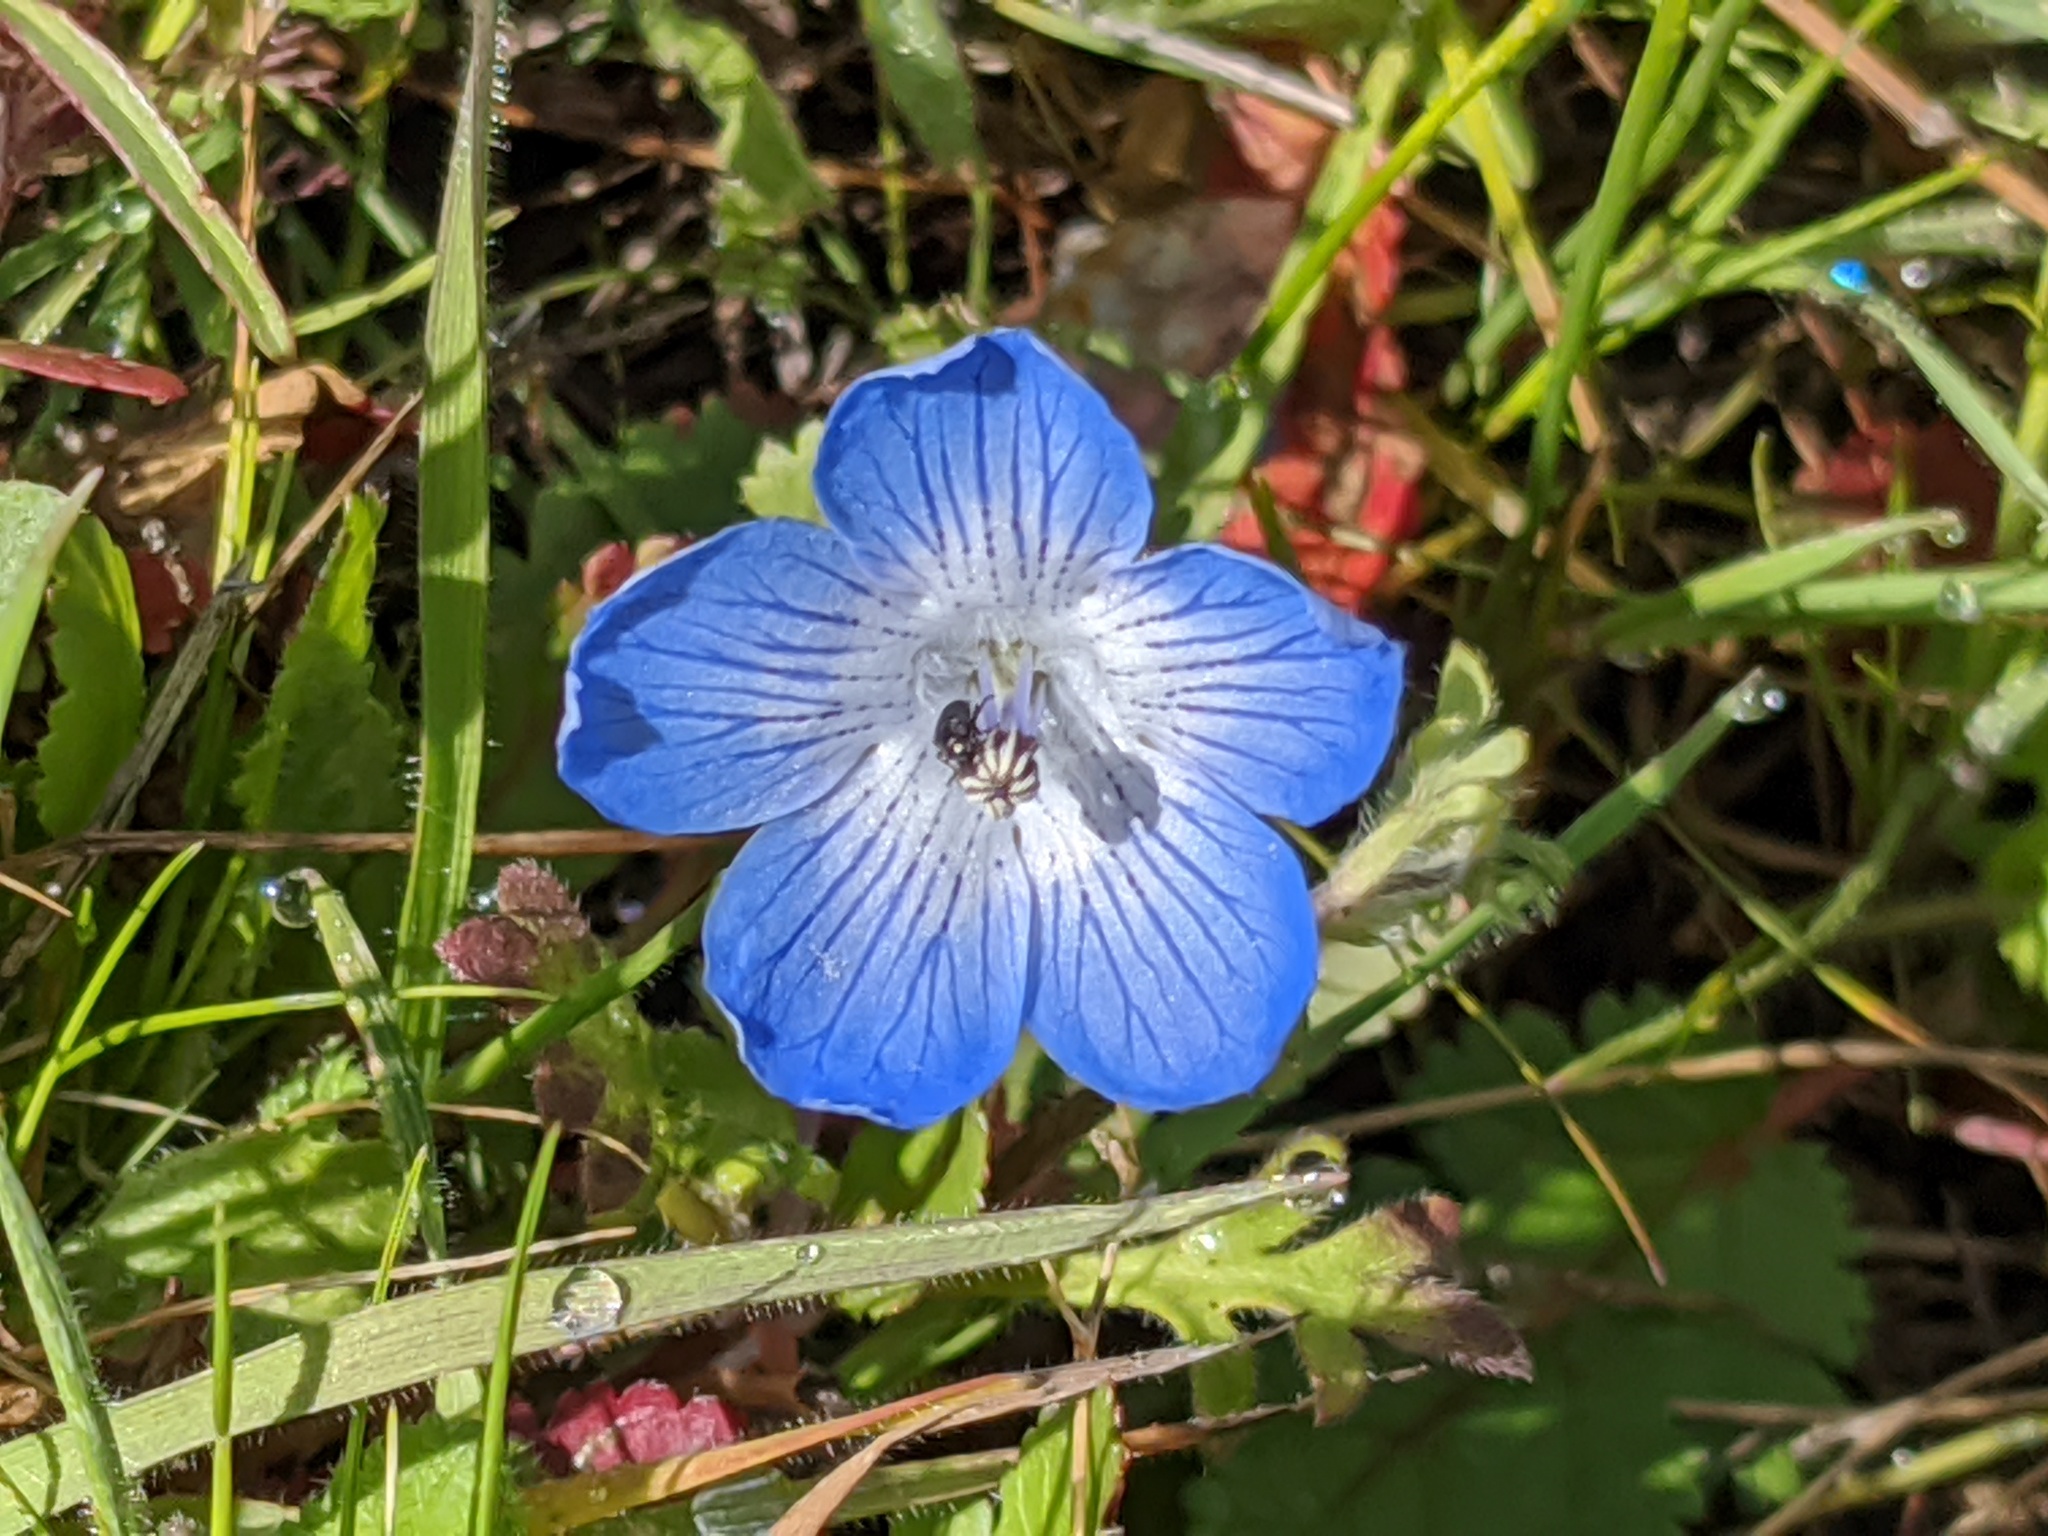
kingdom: Plantae
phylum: Tracheophyta
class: Magnoliopsida
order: Boraginales
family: Hydrophyllaceae
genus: Nemophila
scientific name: Nemophila menziesii
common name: Baby's-blue-eyes
